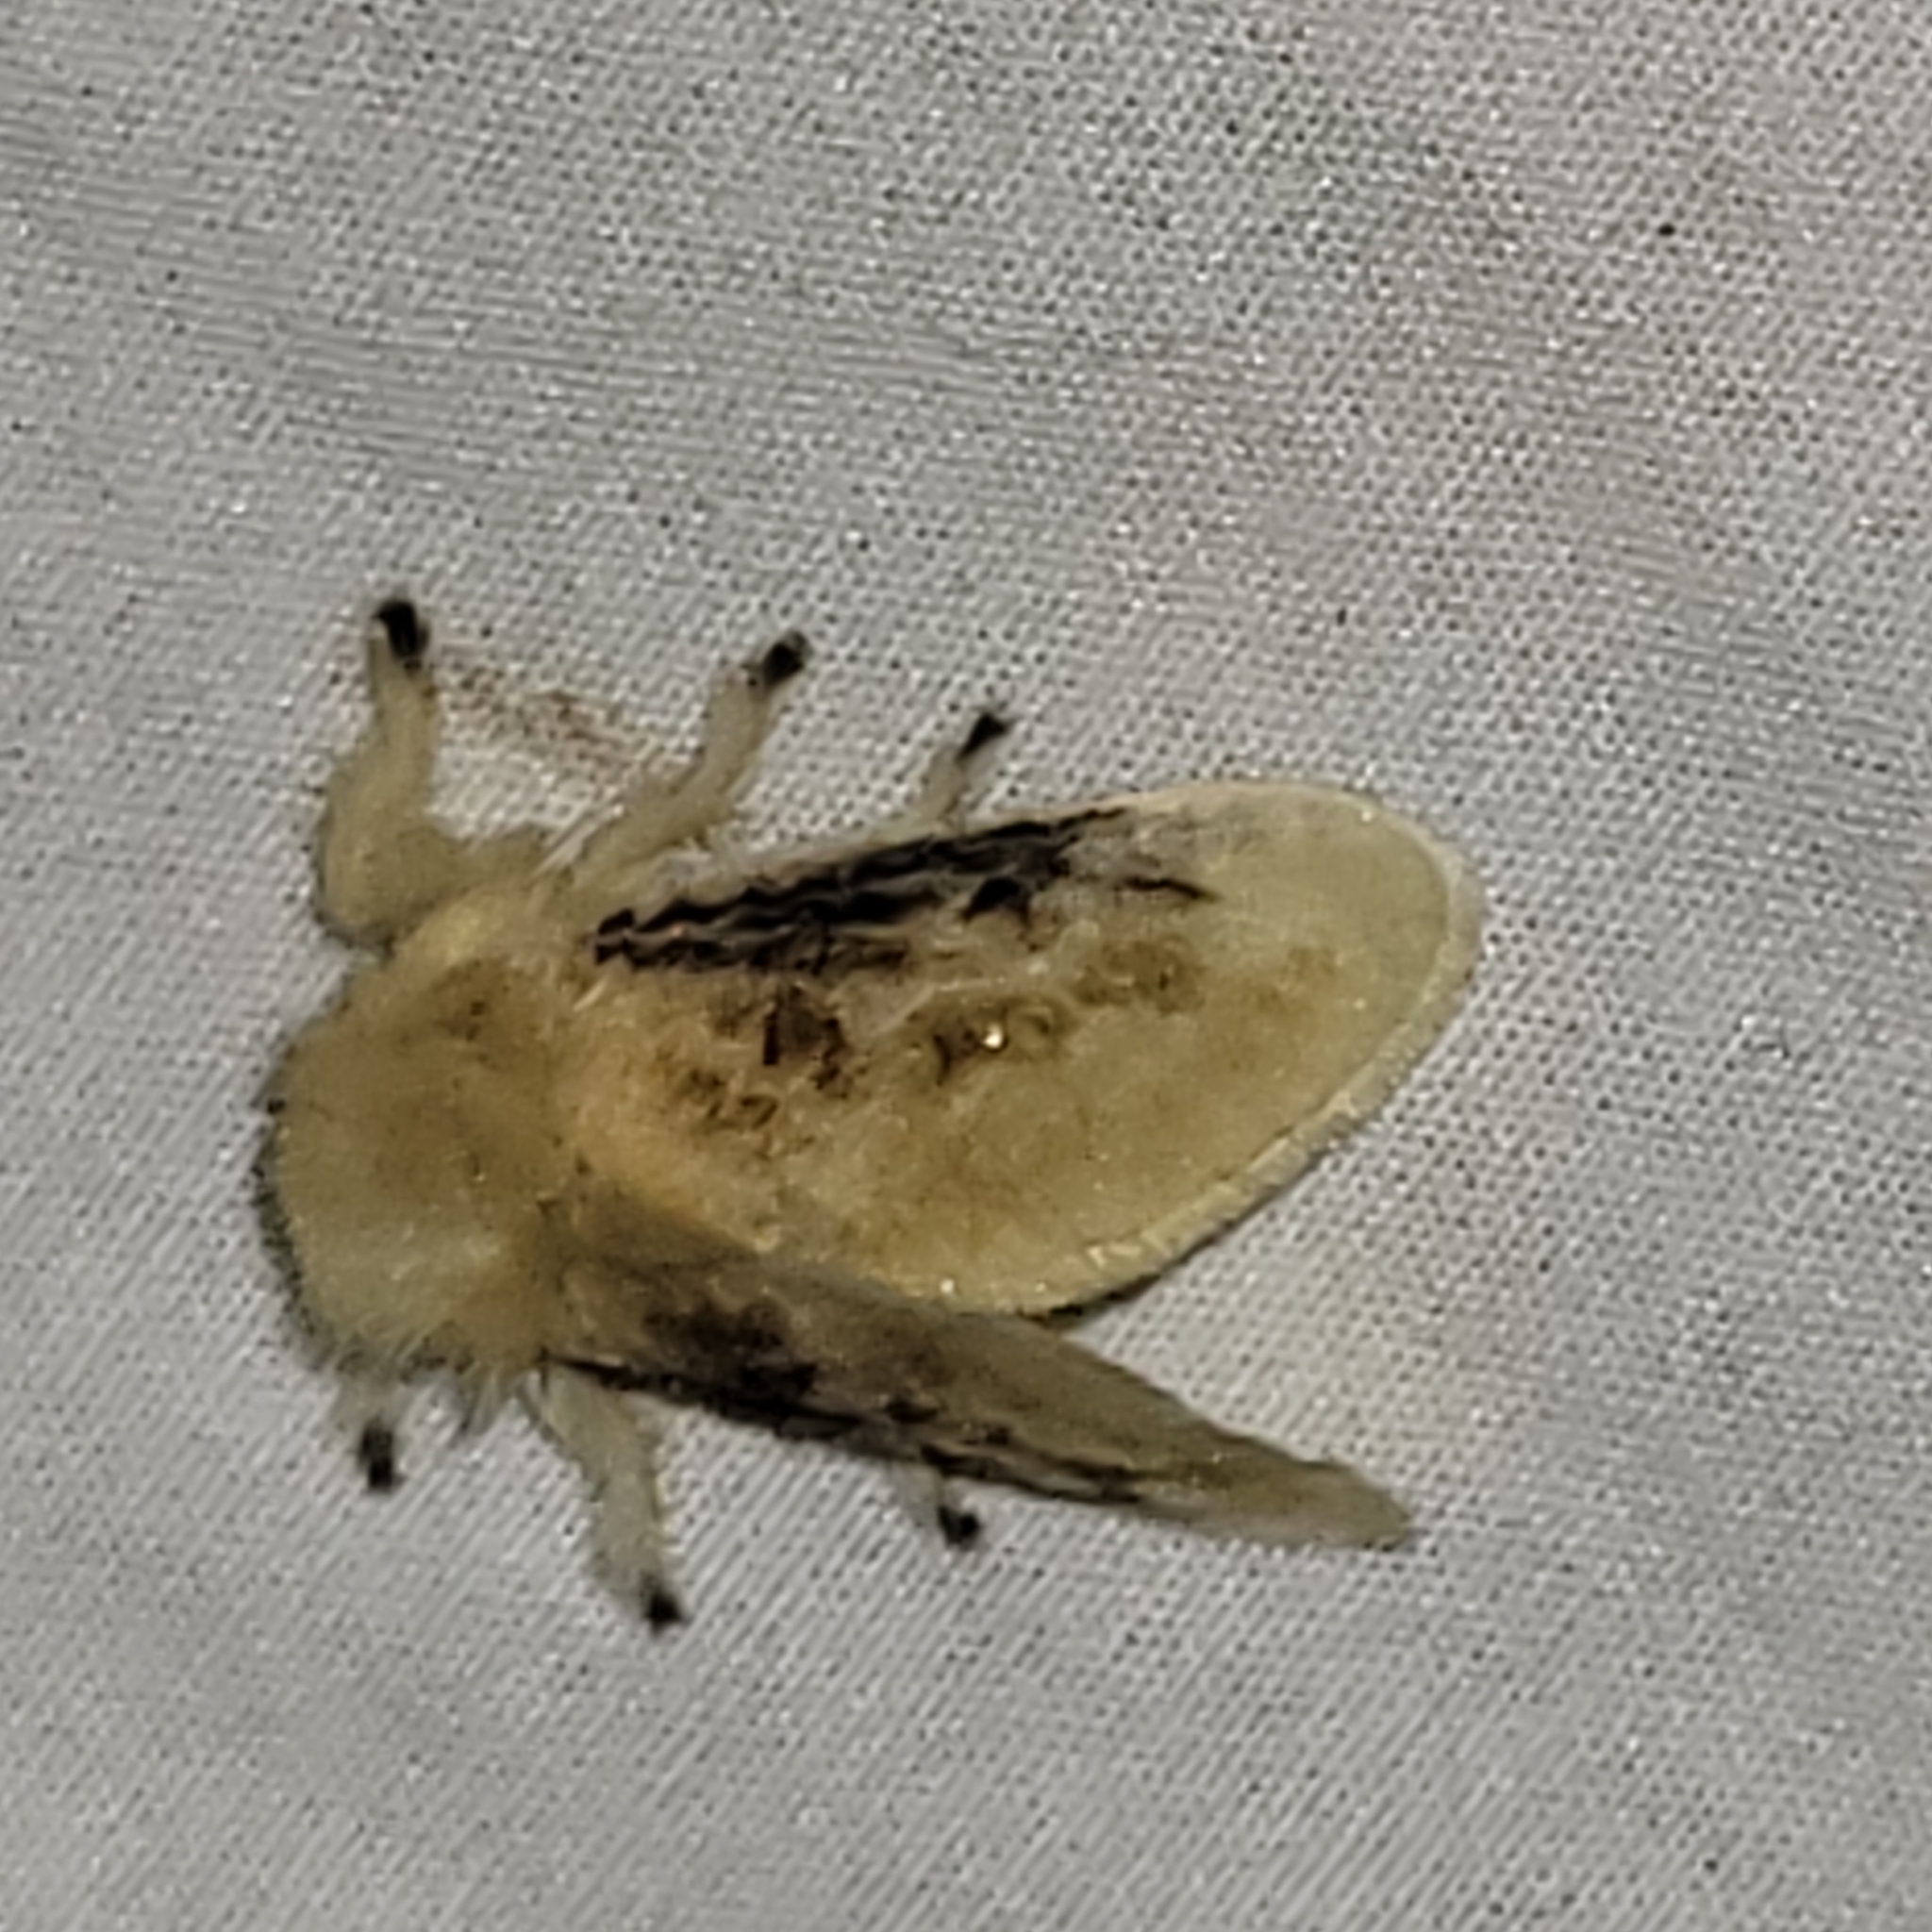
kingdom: Animalia
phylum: Arthropoda
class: Insecta
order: Lepidoptera
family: Megalopygidae
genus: Megalopyge
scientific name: Megalopyge crispata
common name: Black-waved flannel moth
